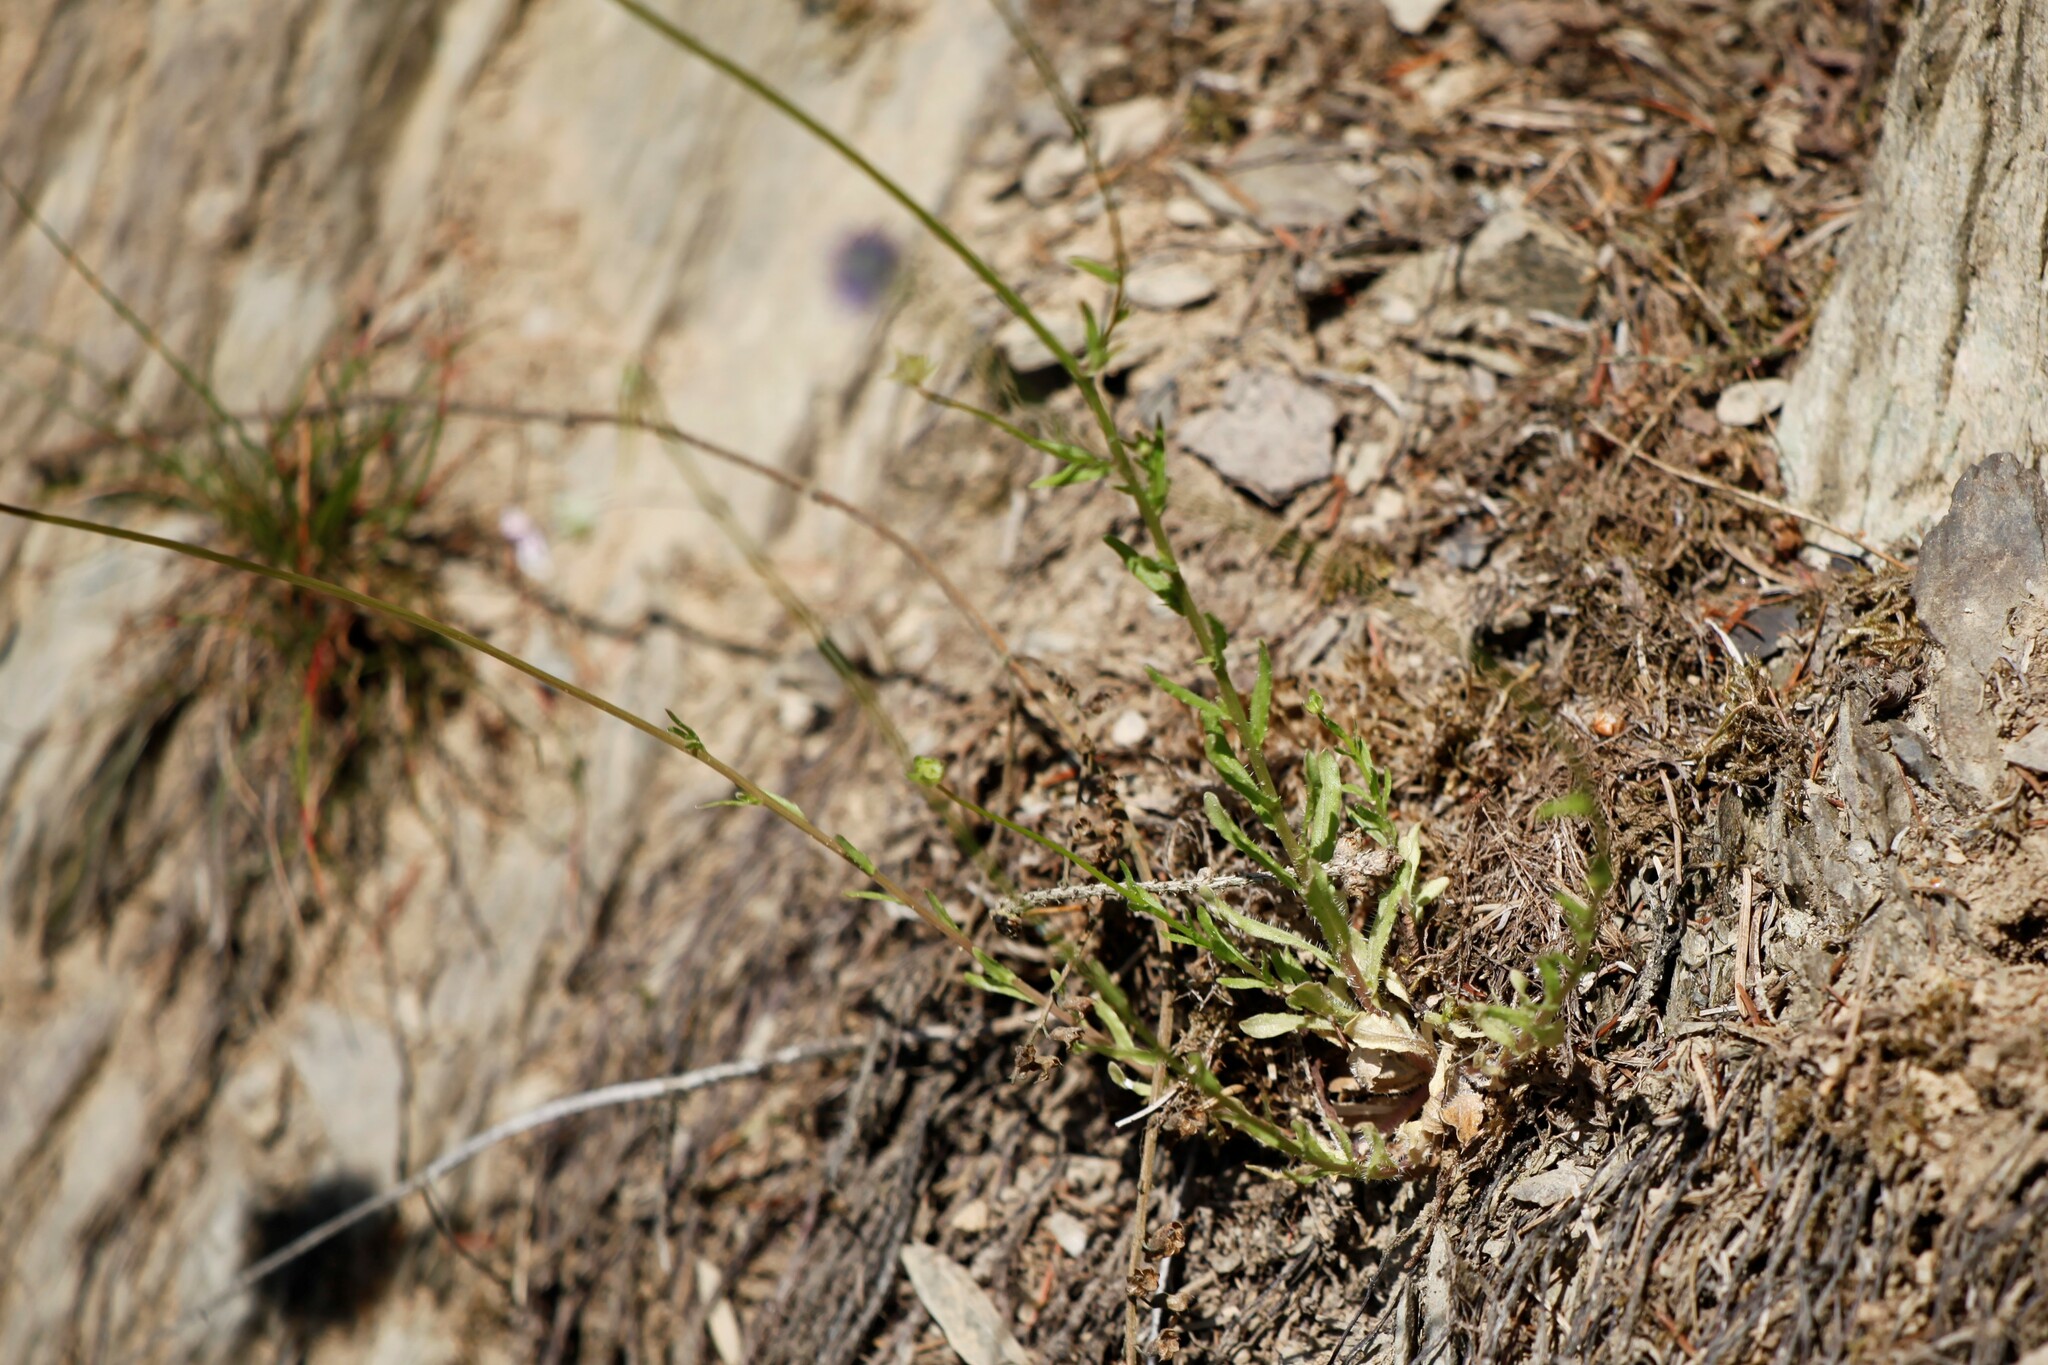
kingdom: Plantae
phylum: Tracheophyta
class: Magnoliopsida
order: Asterales
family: Campanulaceae
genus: Jasione
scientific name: Jasione montana
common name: Sheep's-bit
